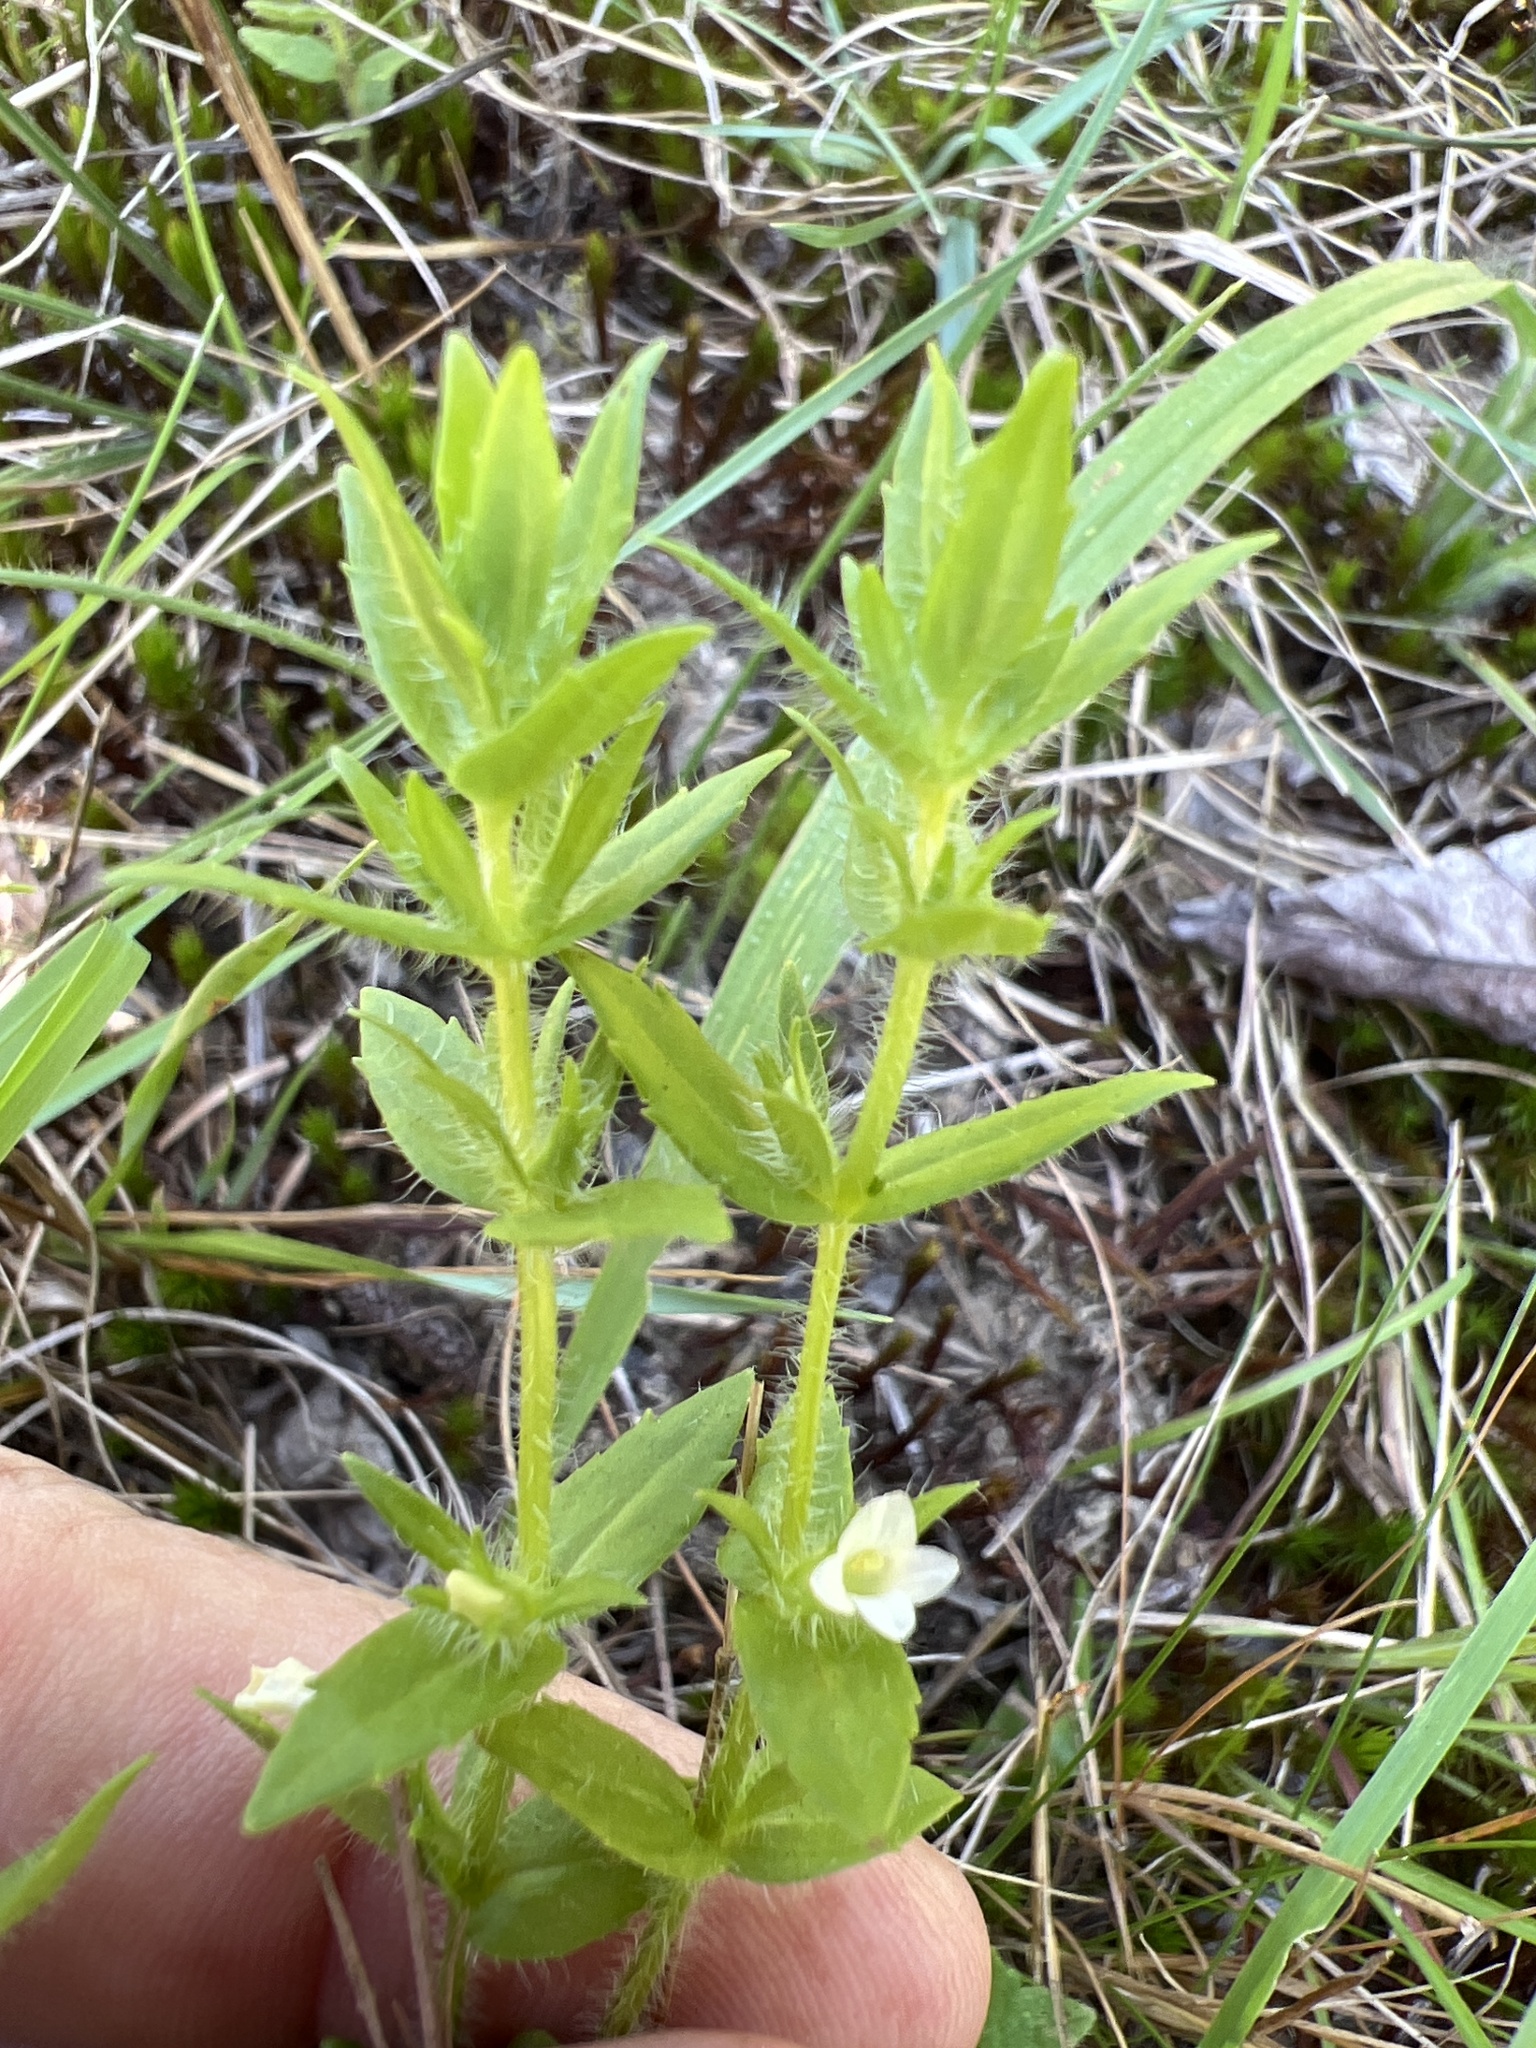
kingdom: Plantae
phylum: Tracheophyta
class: Magnoliopsida
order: Lamiales
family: Plantaginaceae
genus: Gratiola
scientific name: Gratiola pilosa
